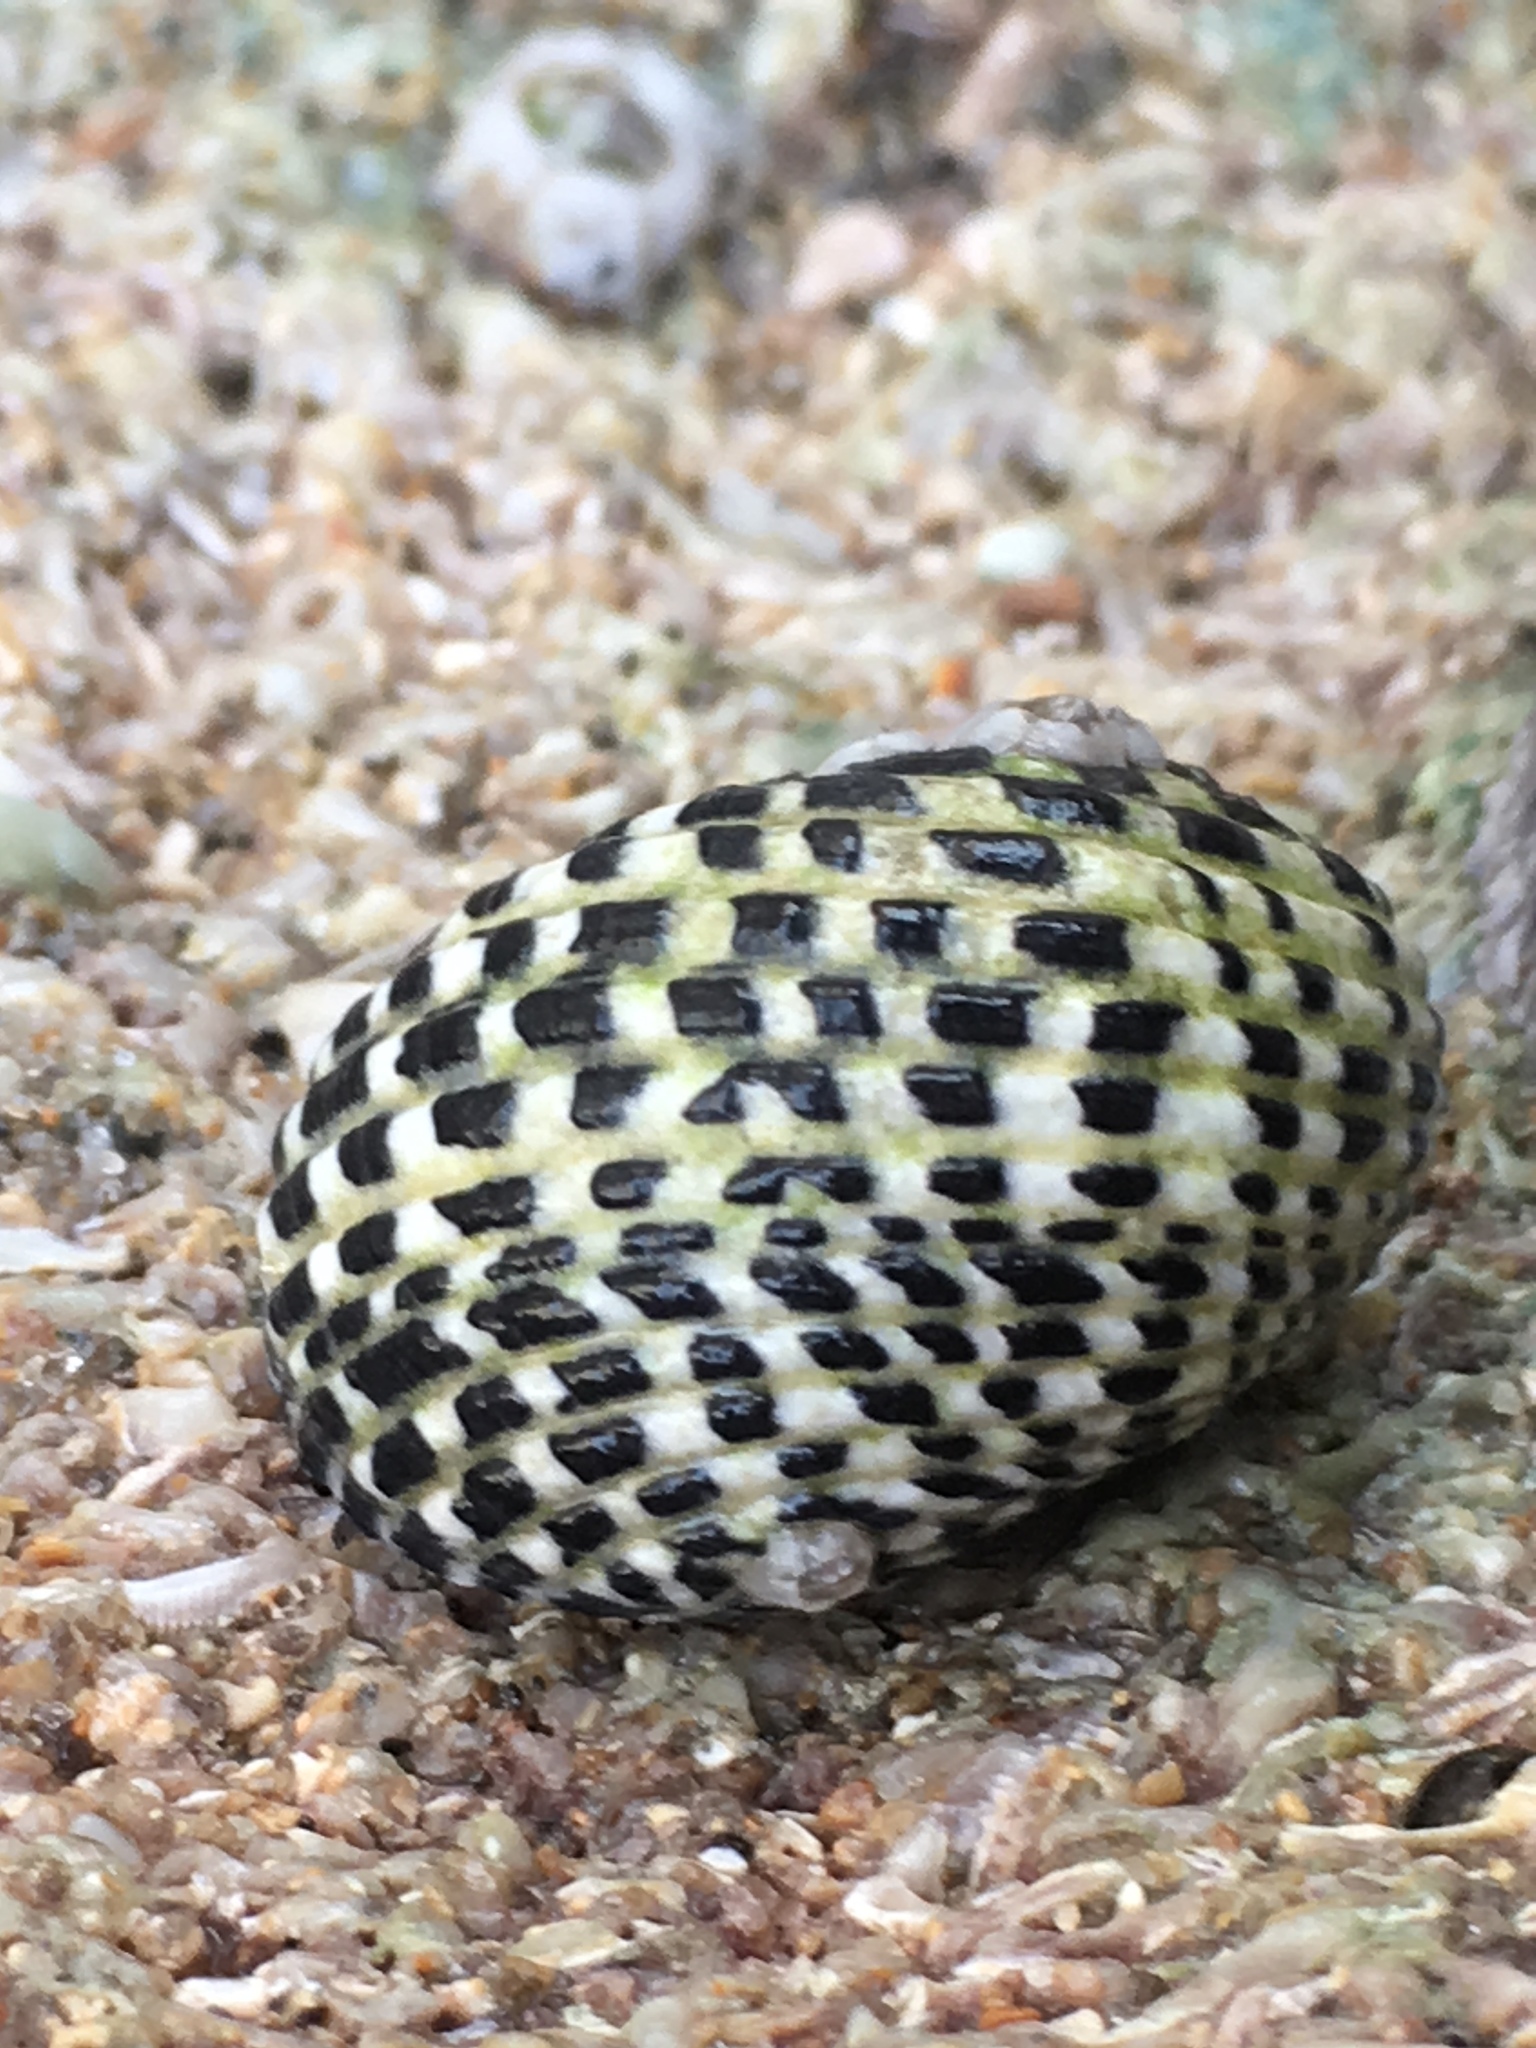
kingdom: Animalia
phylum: Mollusca
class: Gastropoda
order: Cycloneritida
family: Neritidae
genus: Nerita
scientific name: Nerita tessellata
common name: Checkered nerite
